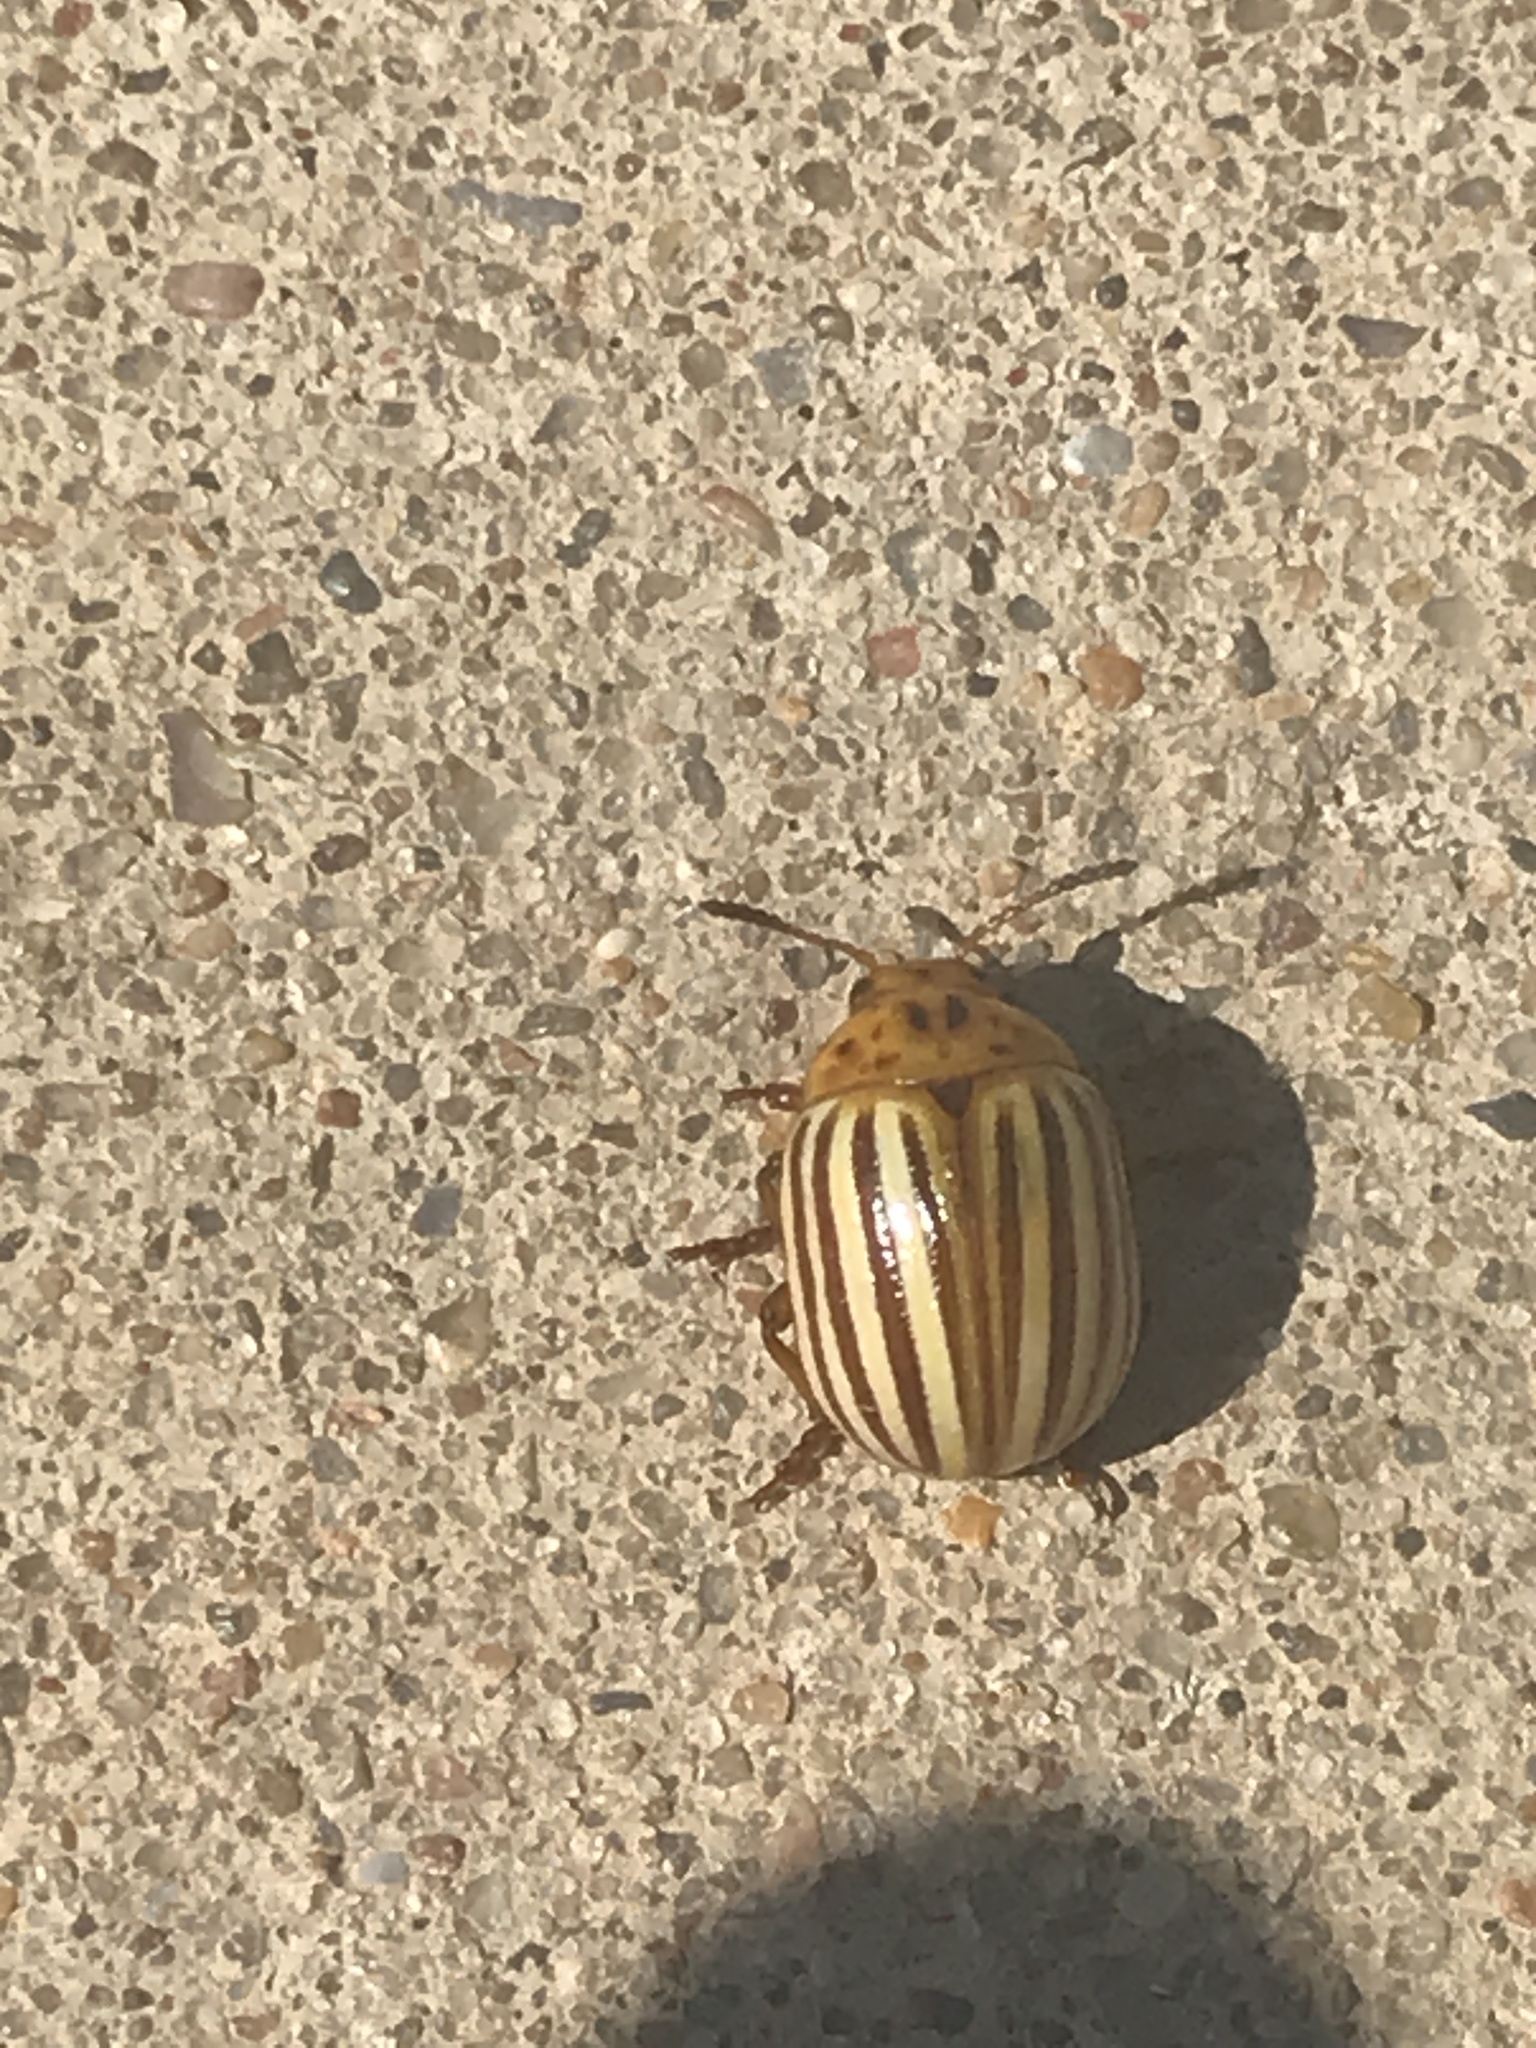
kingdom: Animalia
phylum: Arthropoda
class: Insecta
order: Coleoptera
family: Chrysomelidae
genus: Leptinotarsa
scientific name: Leptinotarsa decemlineata
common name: Colorado potato beetle
